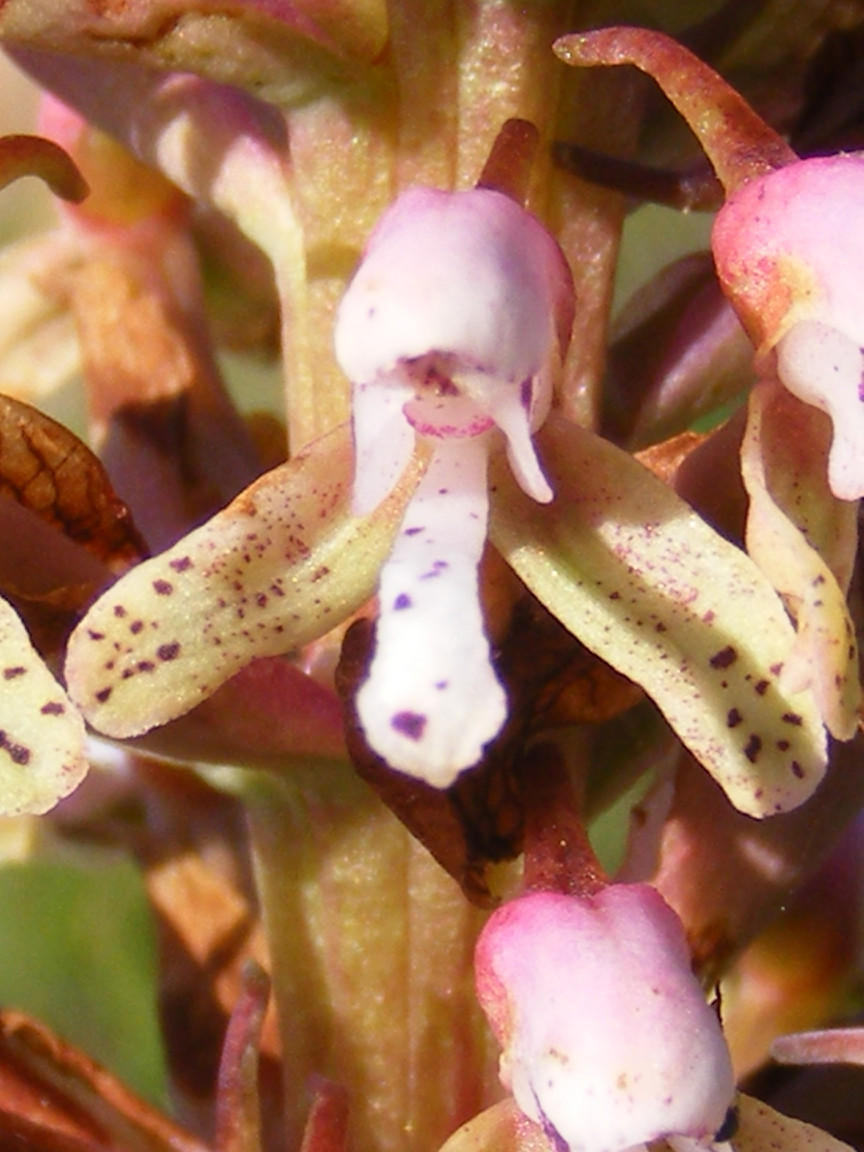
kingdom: Plantae
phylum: Tracheophyta
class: Liliopsida
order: Asparagales
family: Orchidaceae
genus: Disa
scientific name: Disa klugei
